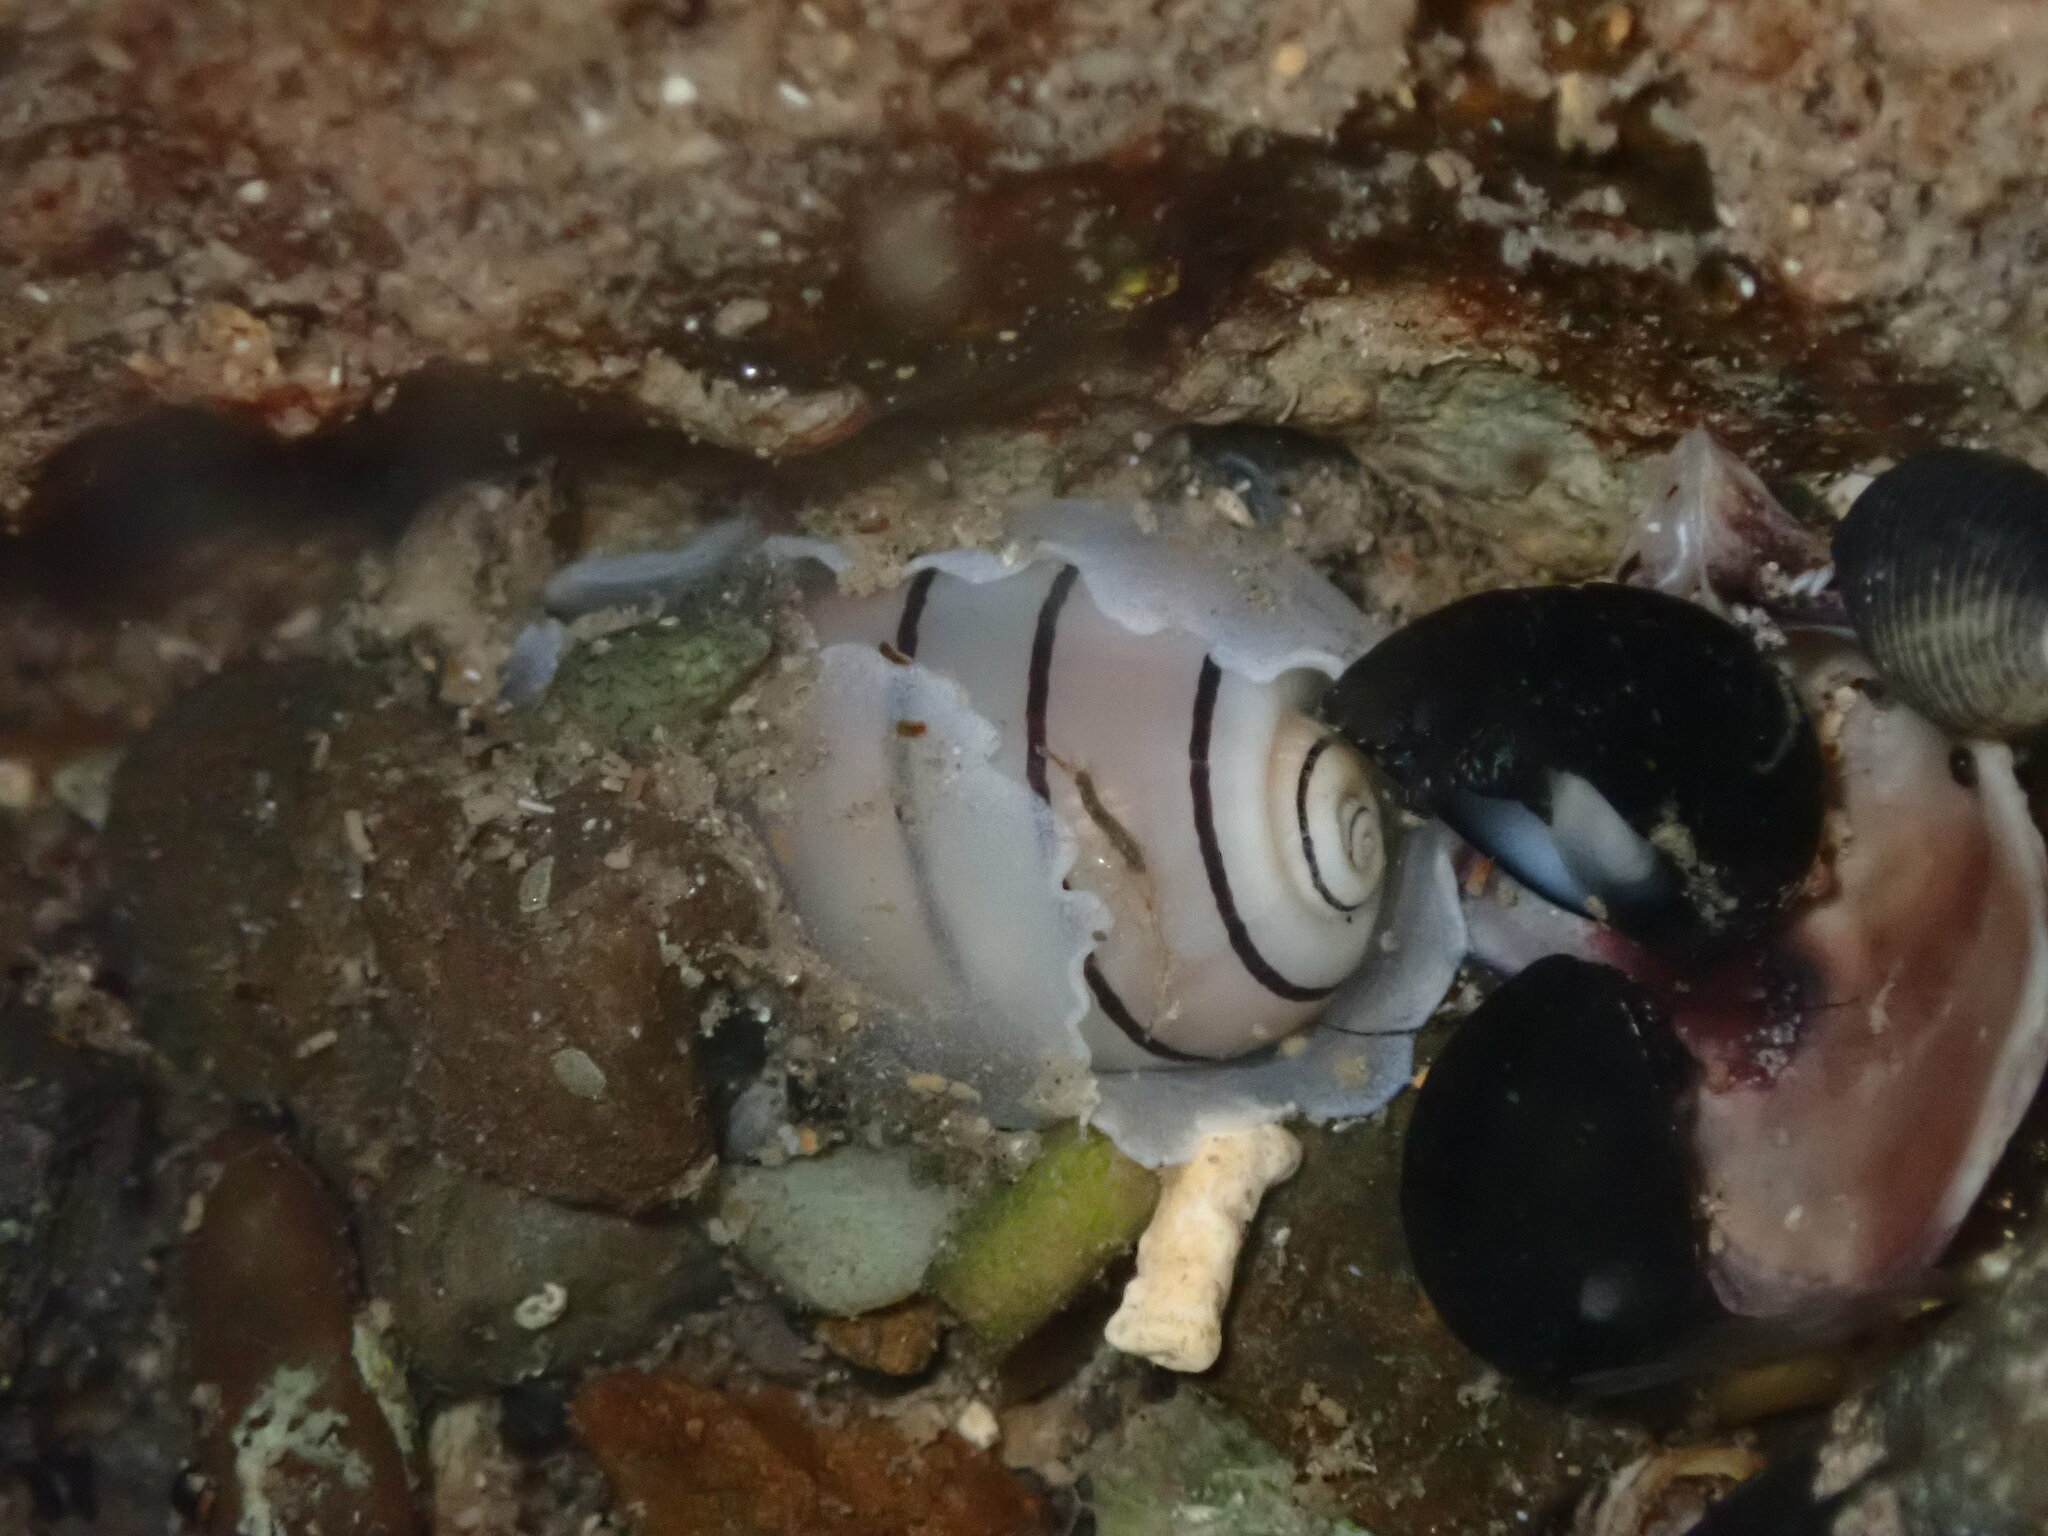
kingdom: Animalia
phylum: Mollusca
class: Gastropoda
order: Cephalaspidea
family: Aplustridae
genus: Aplustrum
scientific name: Aplustrum amplustre
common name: Royal paperbubble
